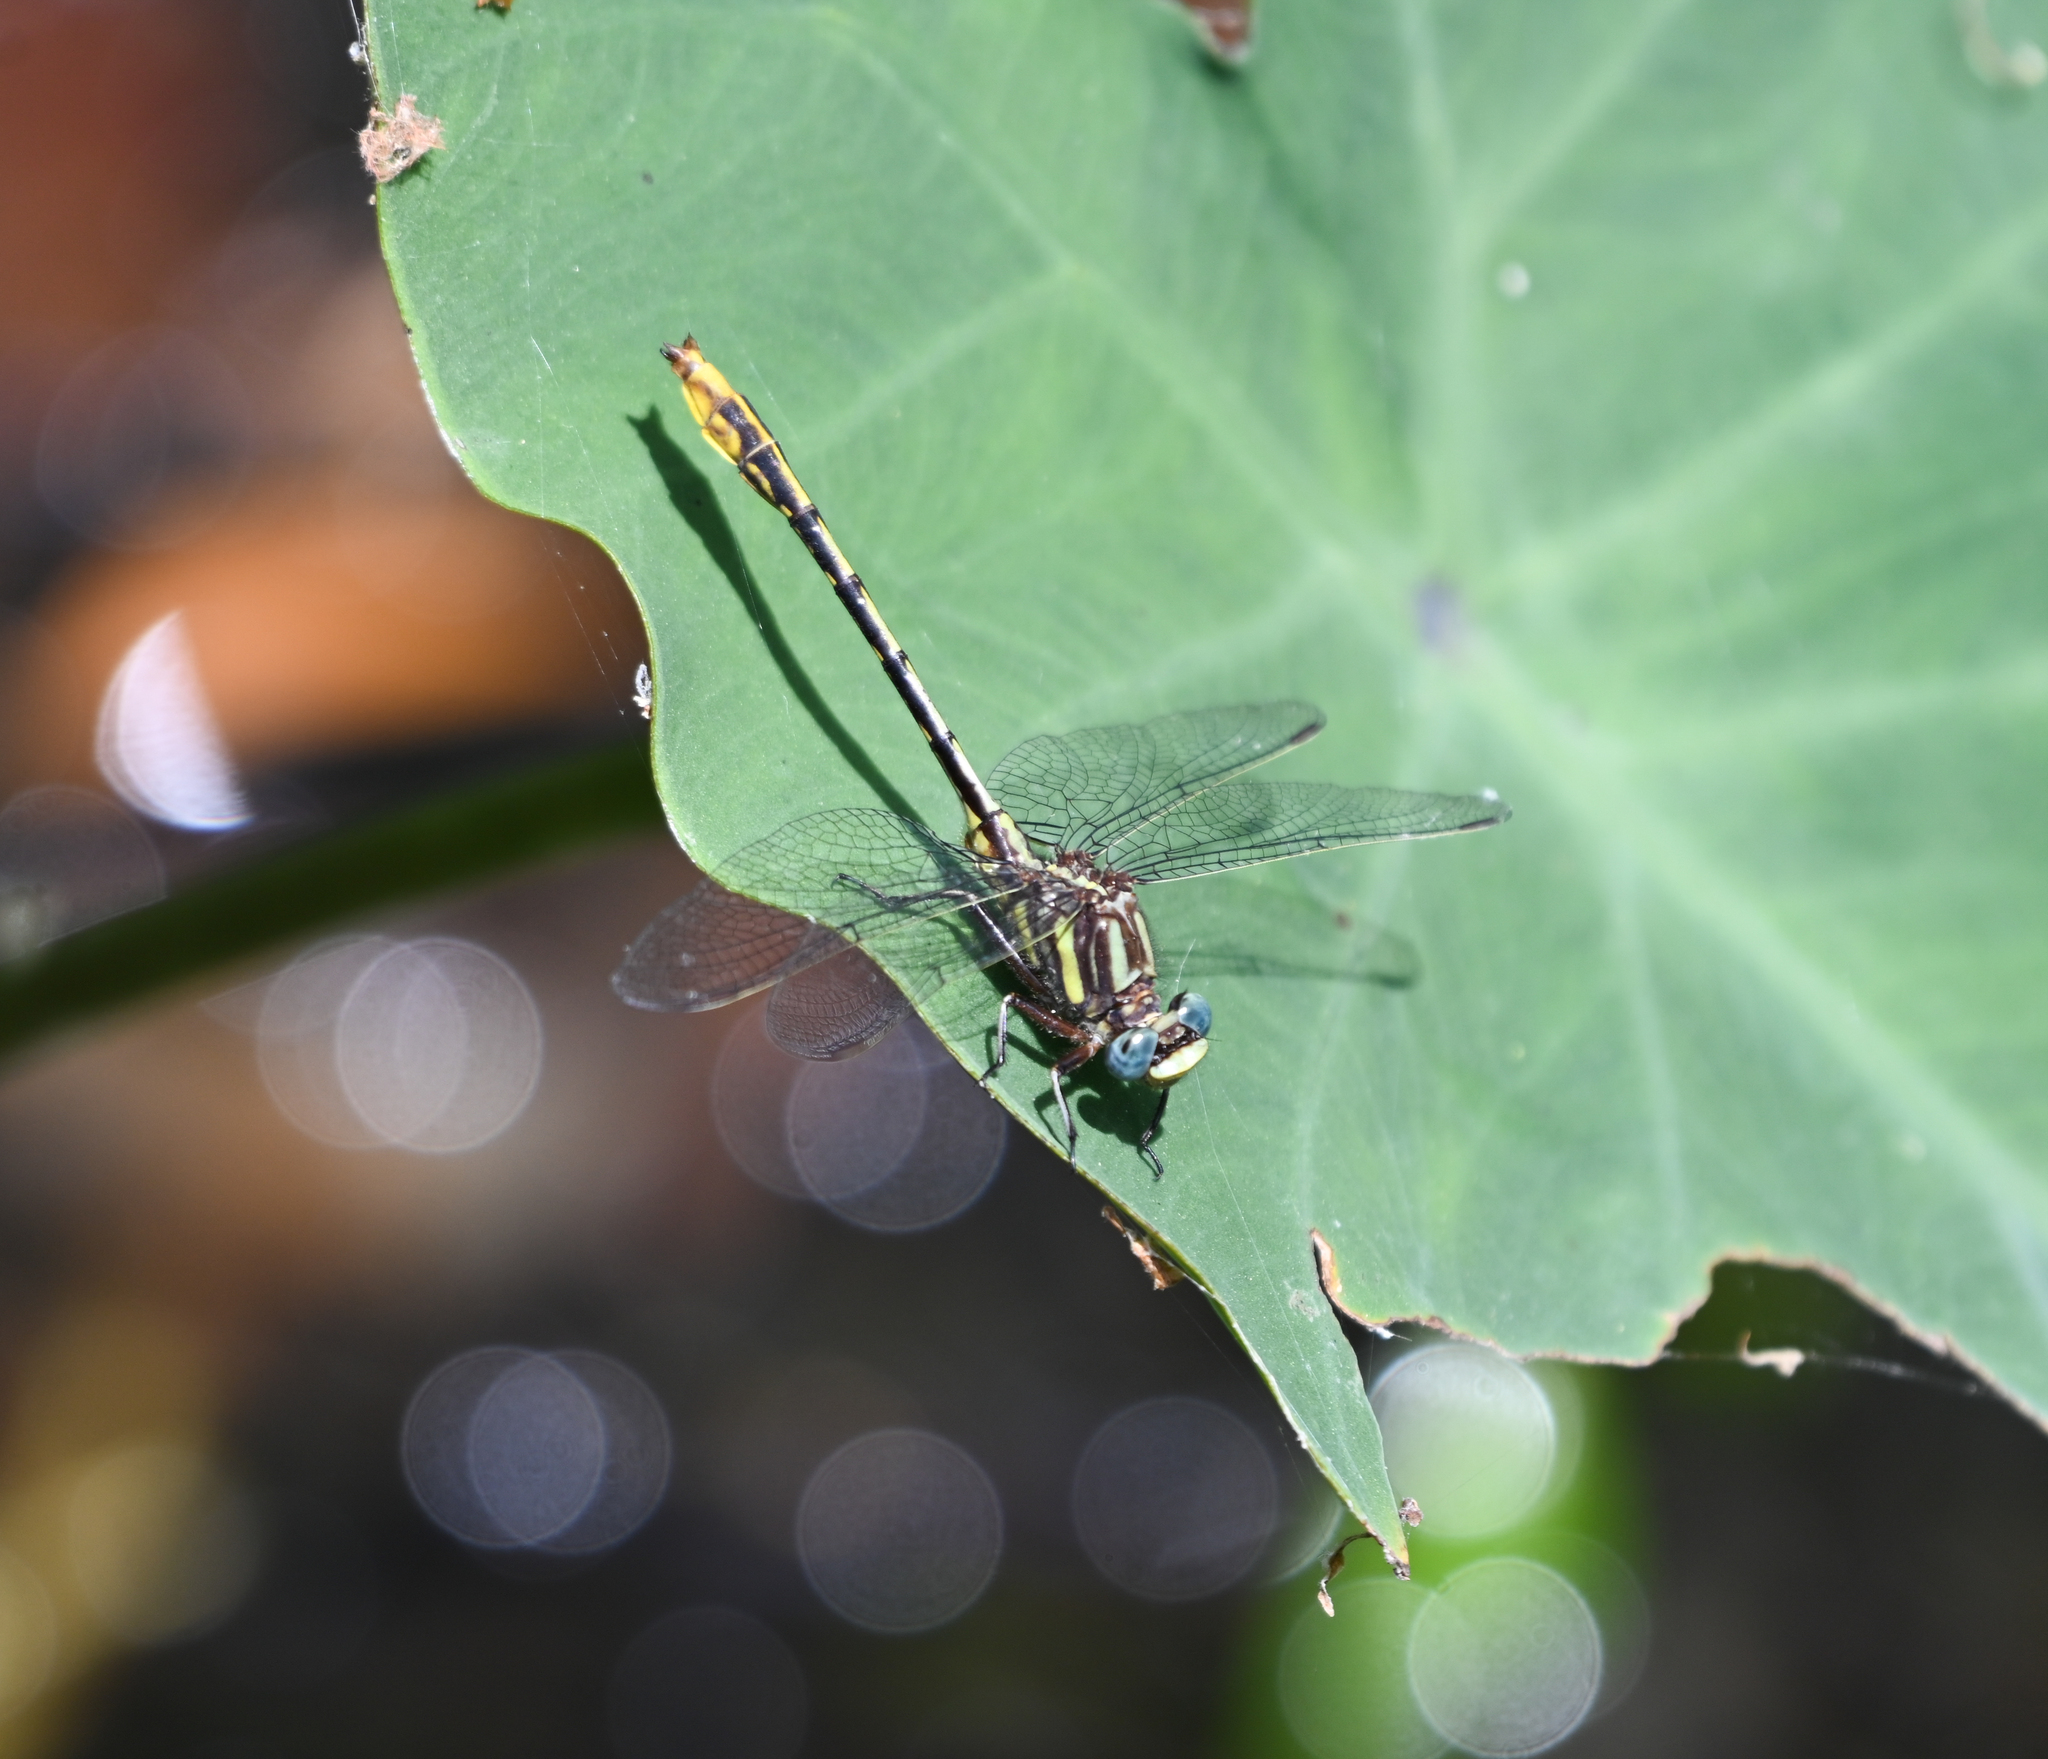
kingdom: Animalia
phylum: Arthropoda
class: Insecta
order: Odonata
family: Gomphidae
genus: Phanogomphus
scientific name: Phanogomphus exilis
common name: Lancet clubtail
